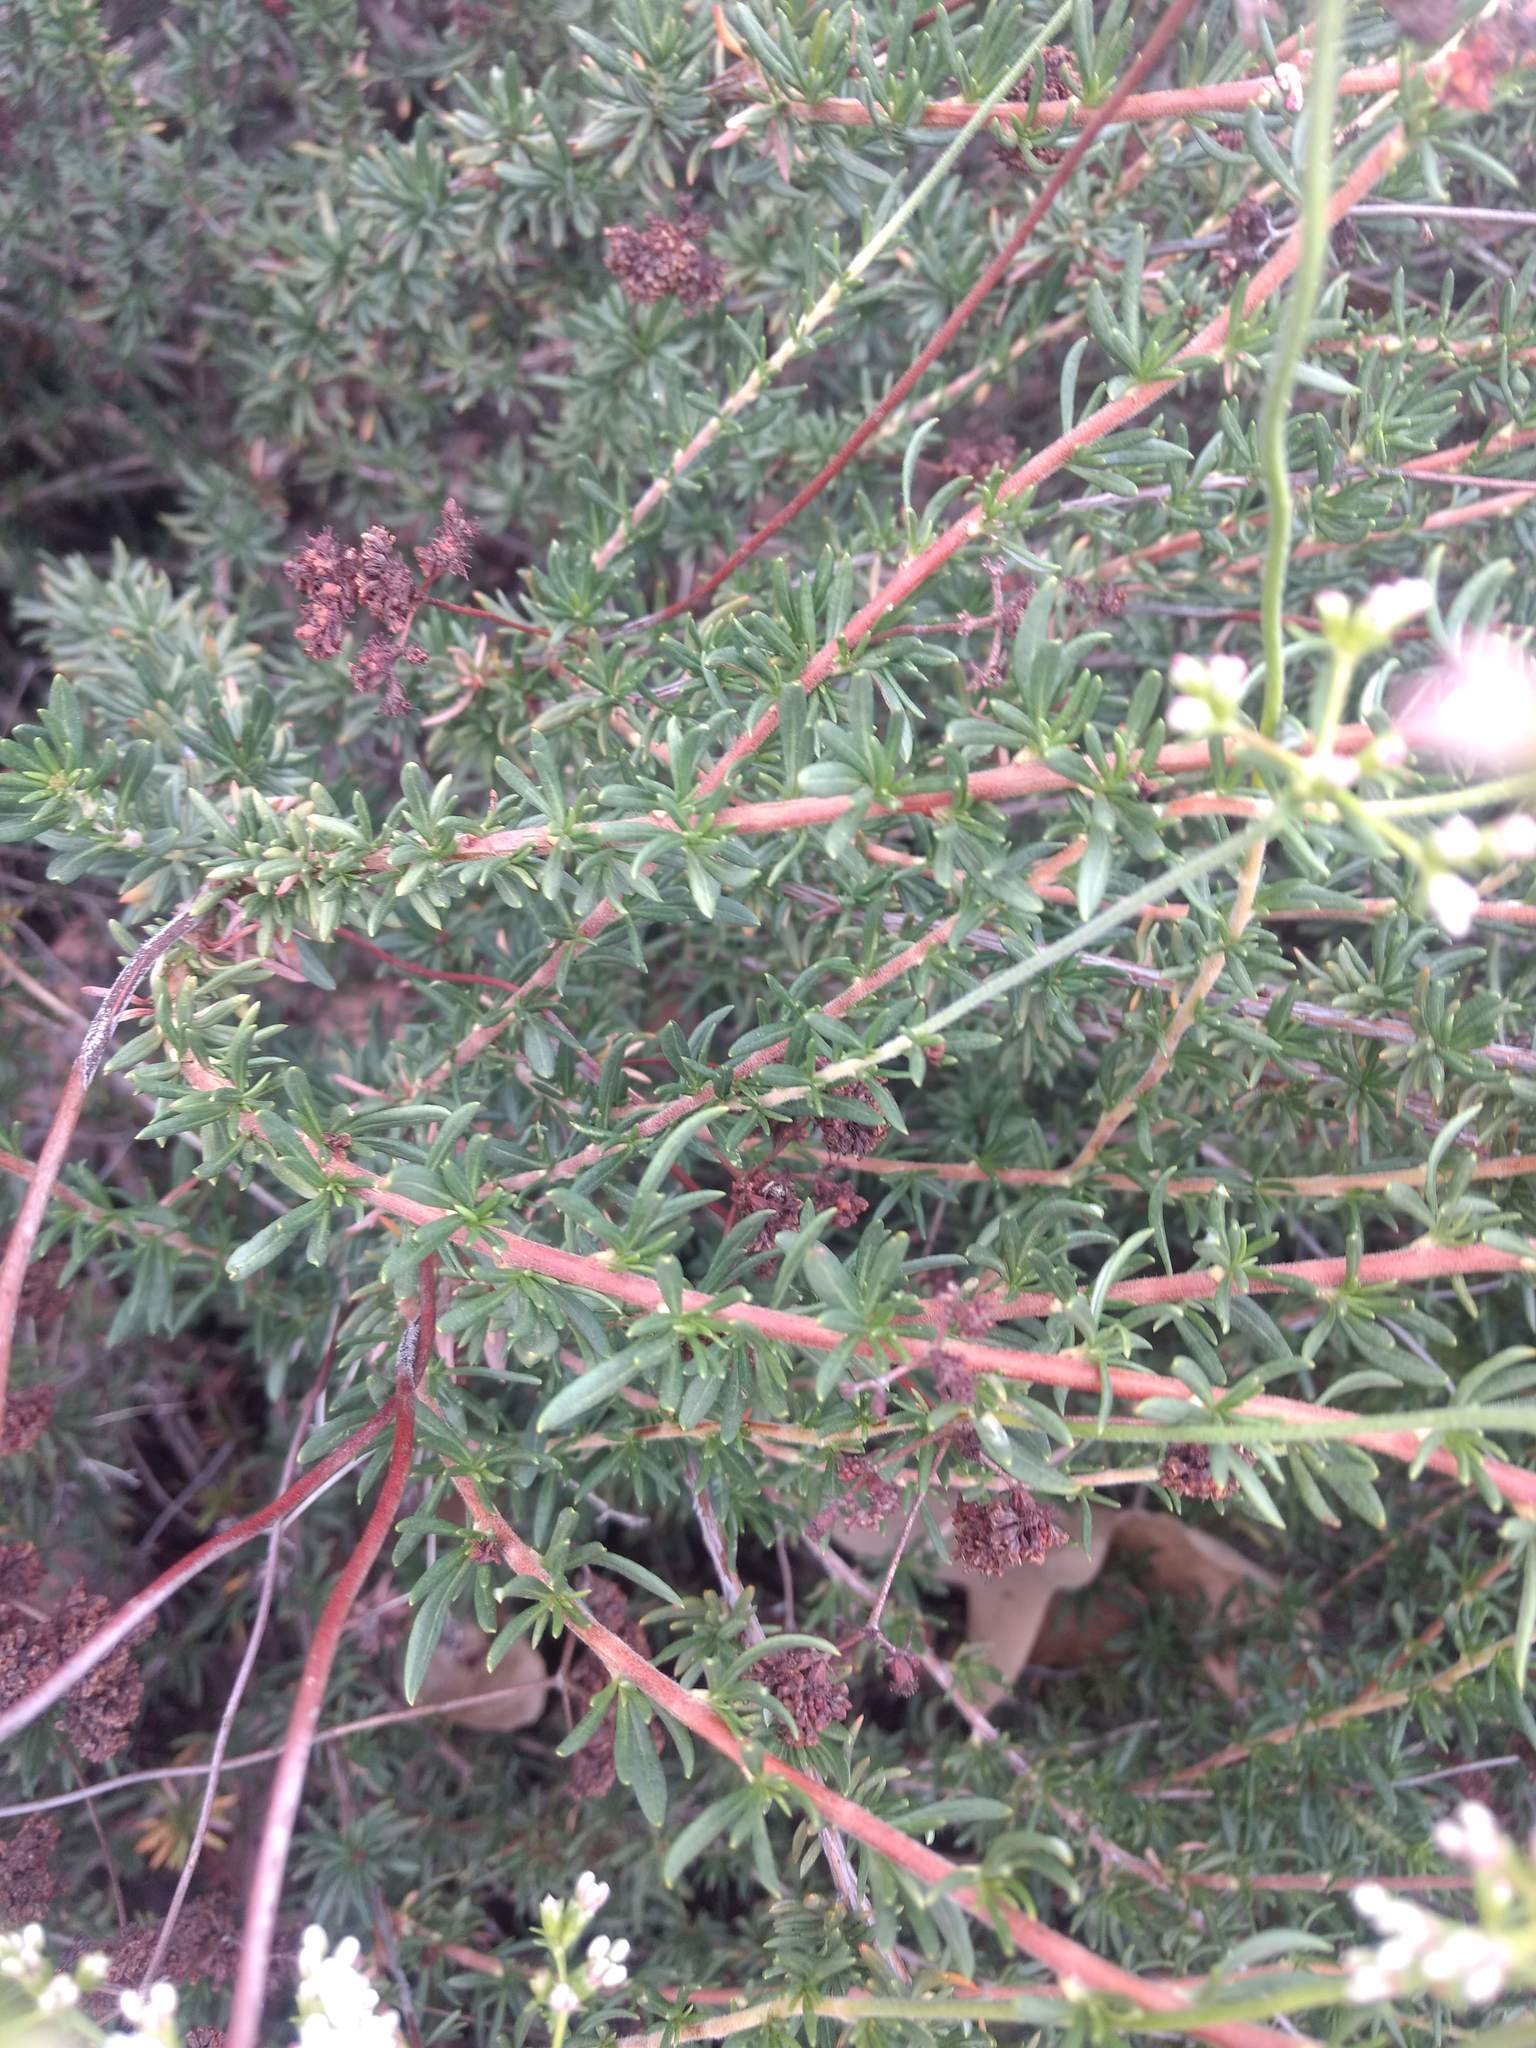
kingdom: Plantae
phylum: Tracheophyta
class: Magnoliopsida
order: Caryophyllales
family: Polygonaceae
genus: Eriogonum
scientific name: Eriogonum fasciculatum
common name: California wild buckwheat
